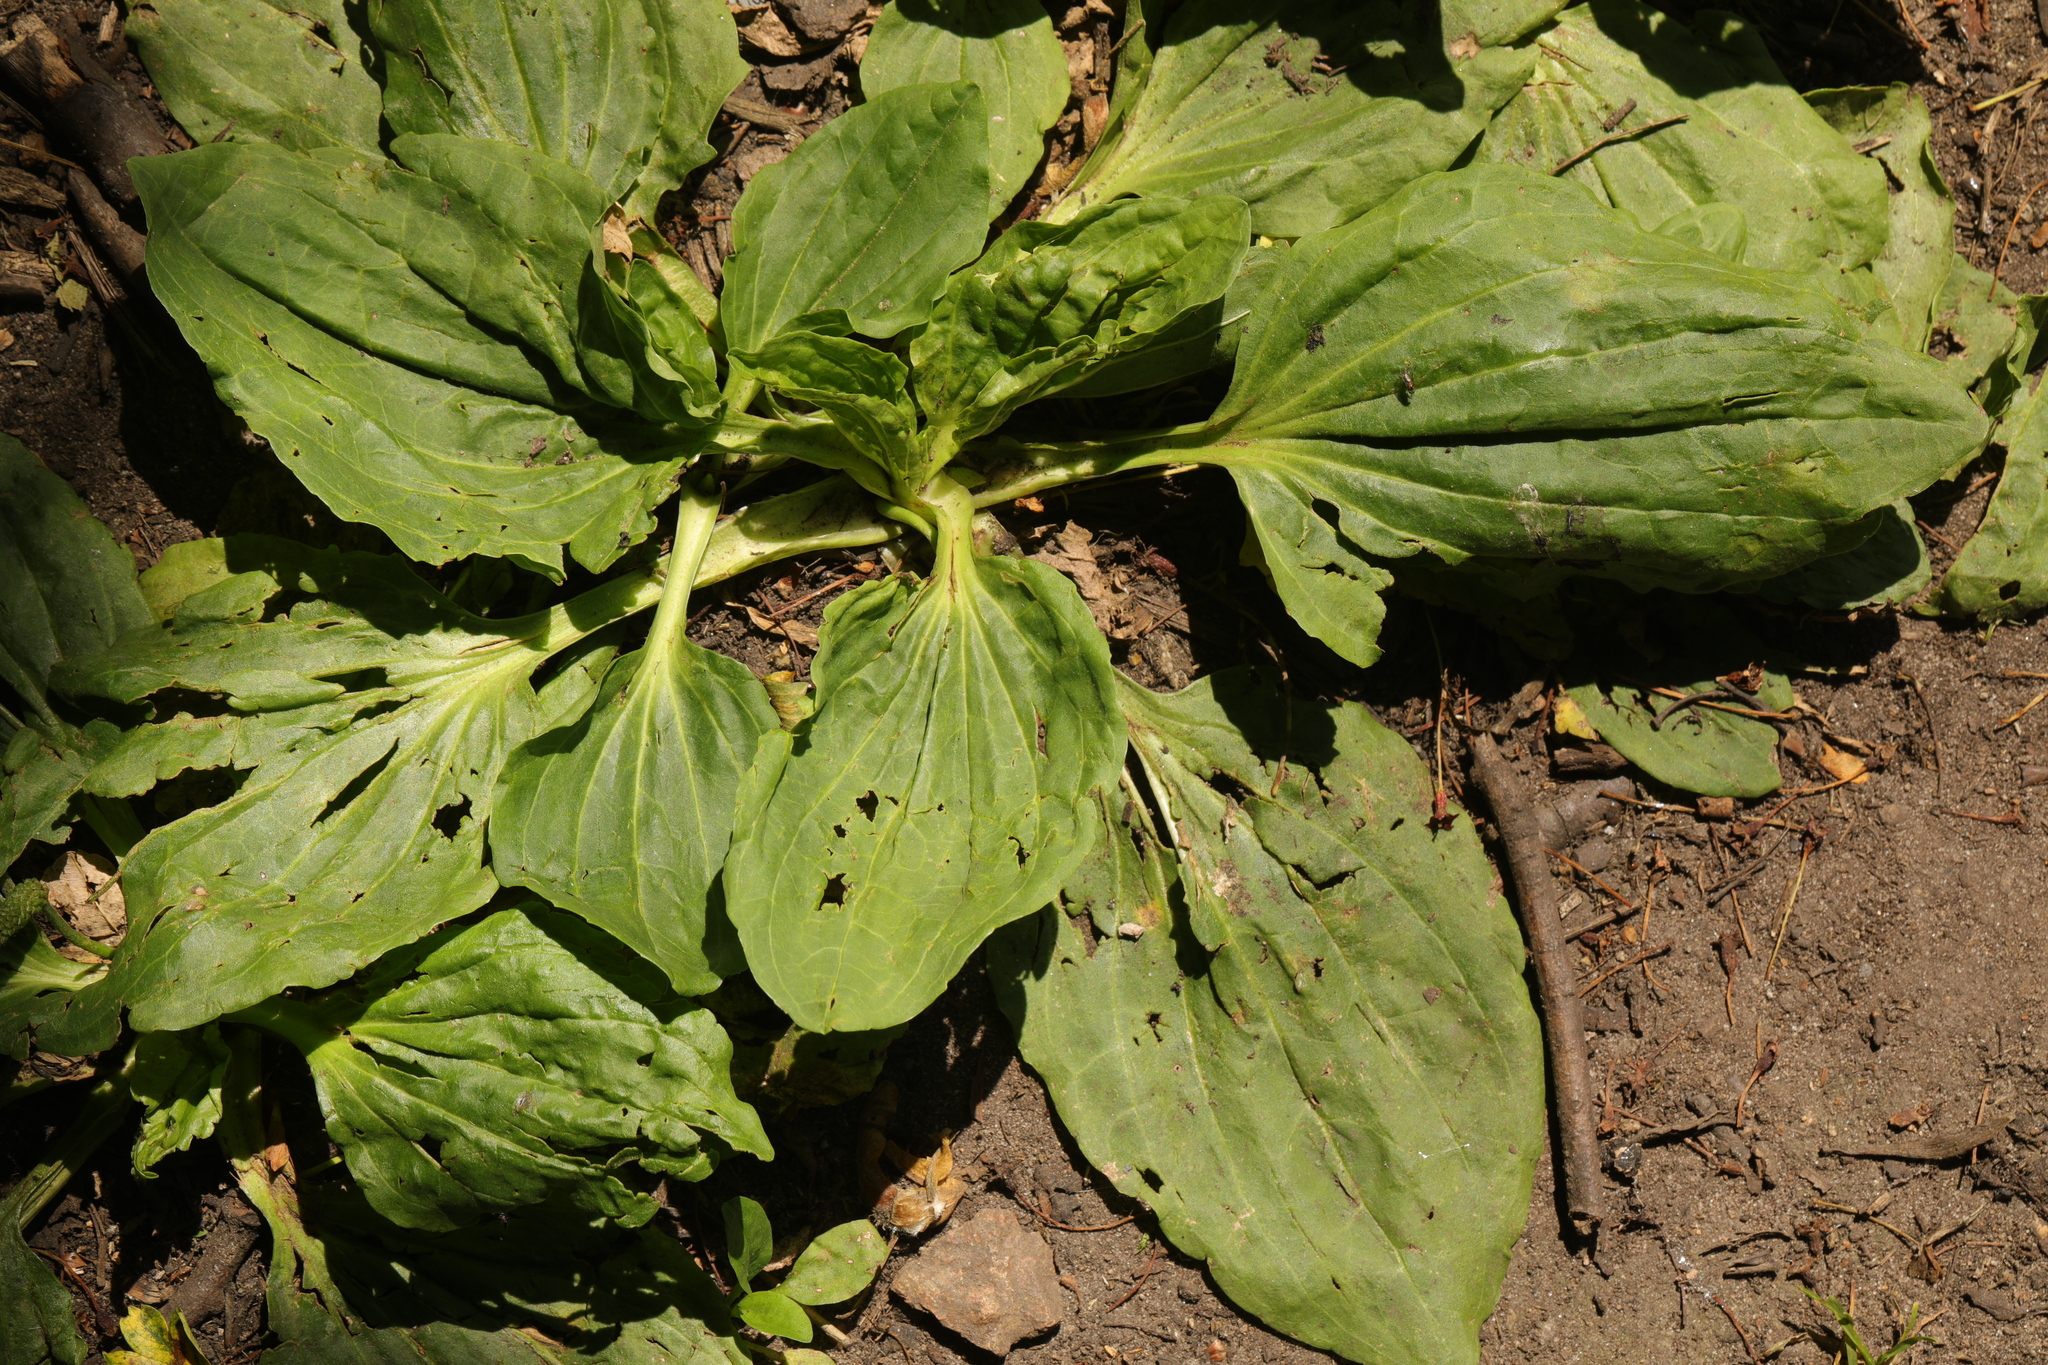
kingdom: Plantae
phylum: Tracheophyta
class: Magnoliopsida
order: Lamiales
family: Plantaginaceae
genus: Plantago
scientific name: Plantago major
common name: Common plantain
